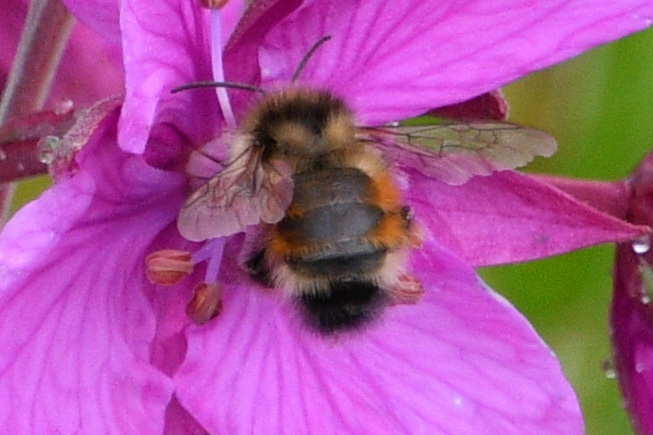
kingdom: Animalia
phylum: Arthropoda
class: Insecta
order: Hymenoptera
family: Apidae
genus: Bombus
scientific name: Bombus sylvicola
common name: Forest bumble bee
